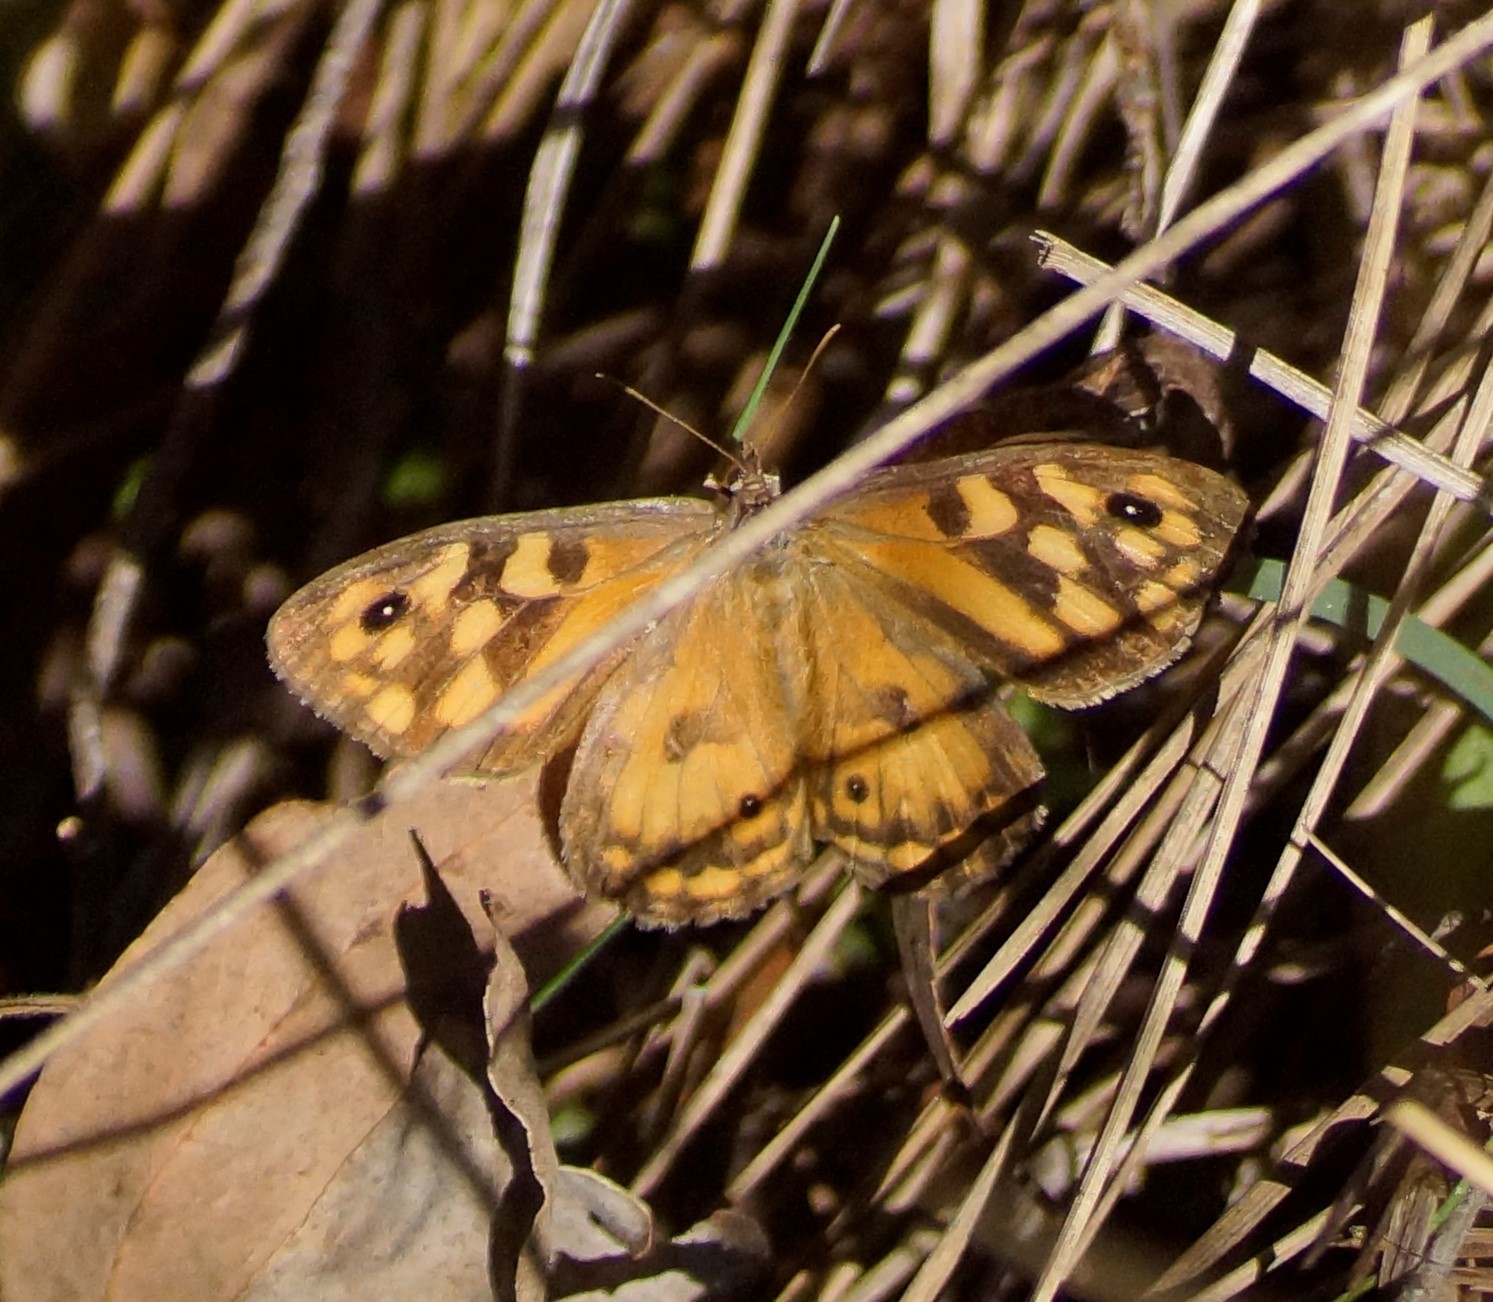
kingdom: Animalia
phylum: Arthropoda
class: Insecta
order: Lepidoptera
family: Nymphalidae
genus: Geitoneura
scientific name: Geitoneura klugii
